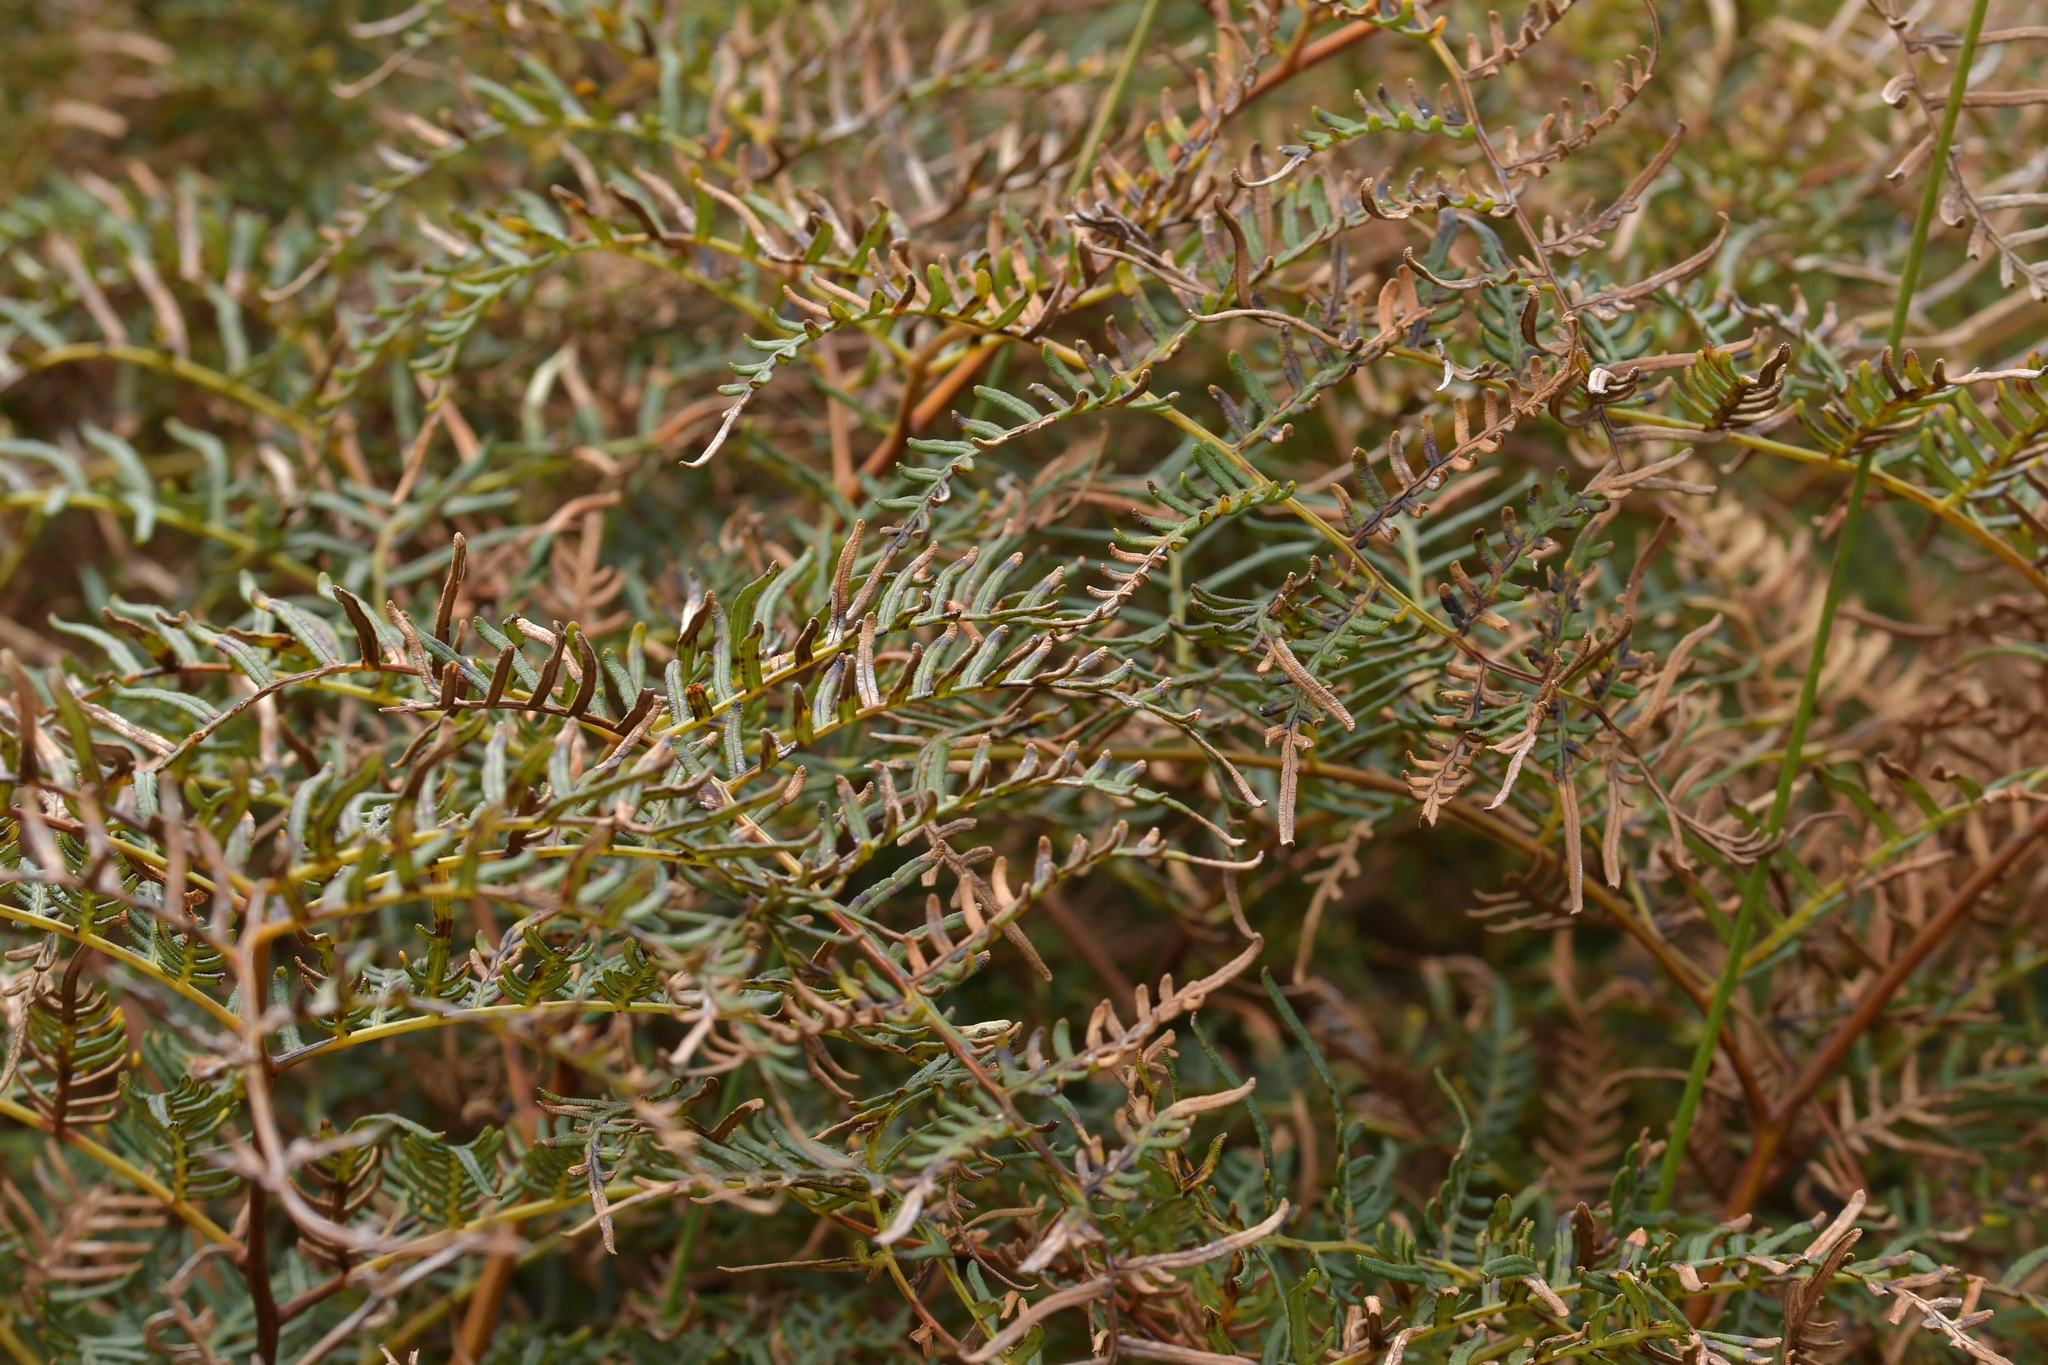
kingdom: Plantae
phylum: Tracheophyta
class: Polypodiopsida
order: Polypodiales
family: Dennstaedtiaceae
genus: Pteridium
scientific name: Pteridium esculentum
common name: Bracken fern
